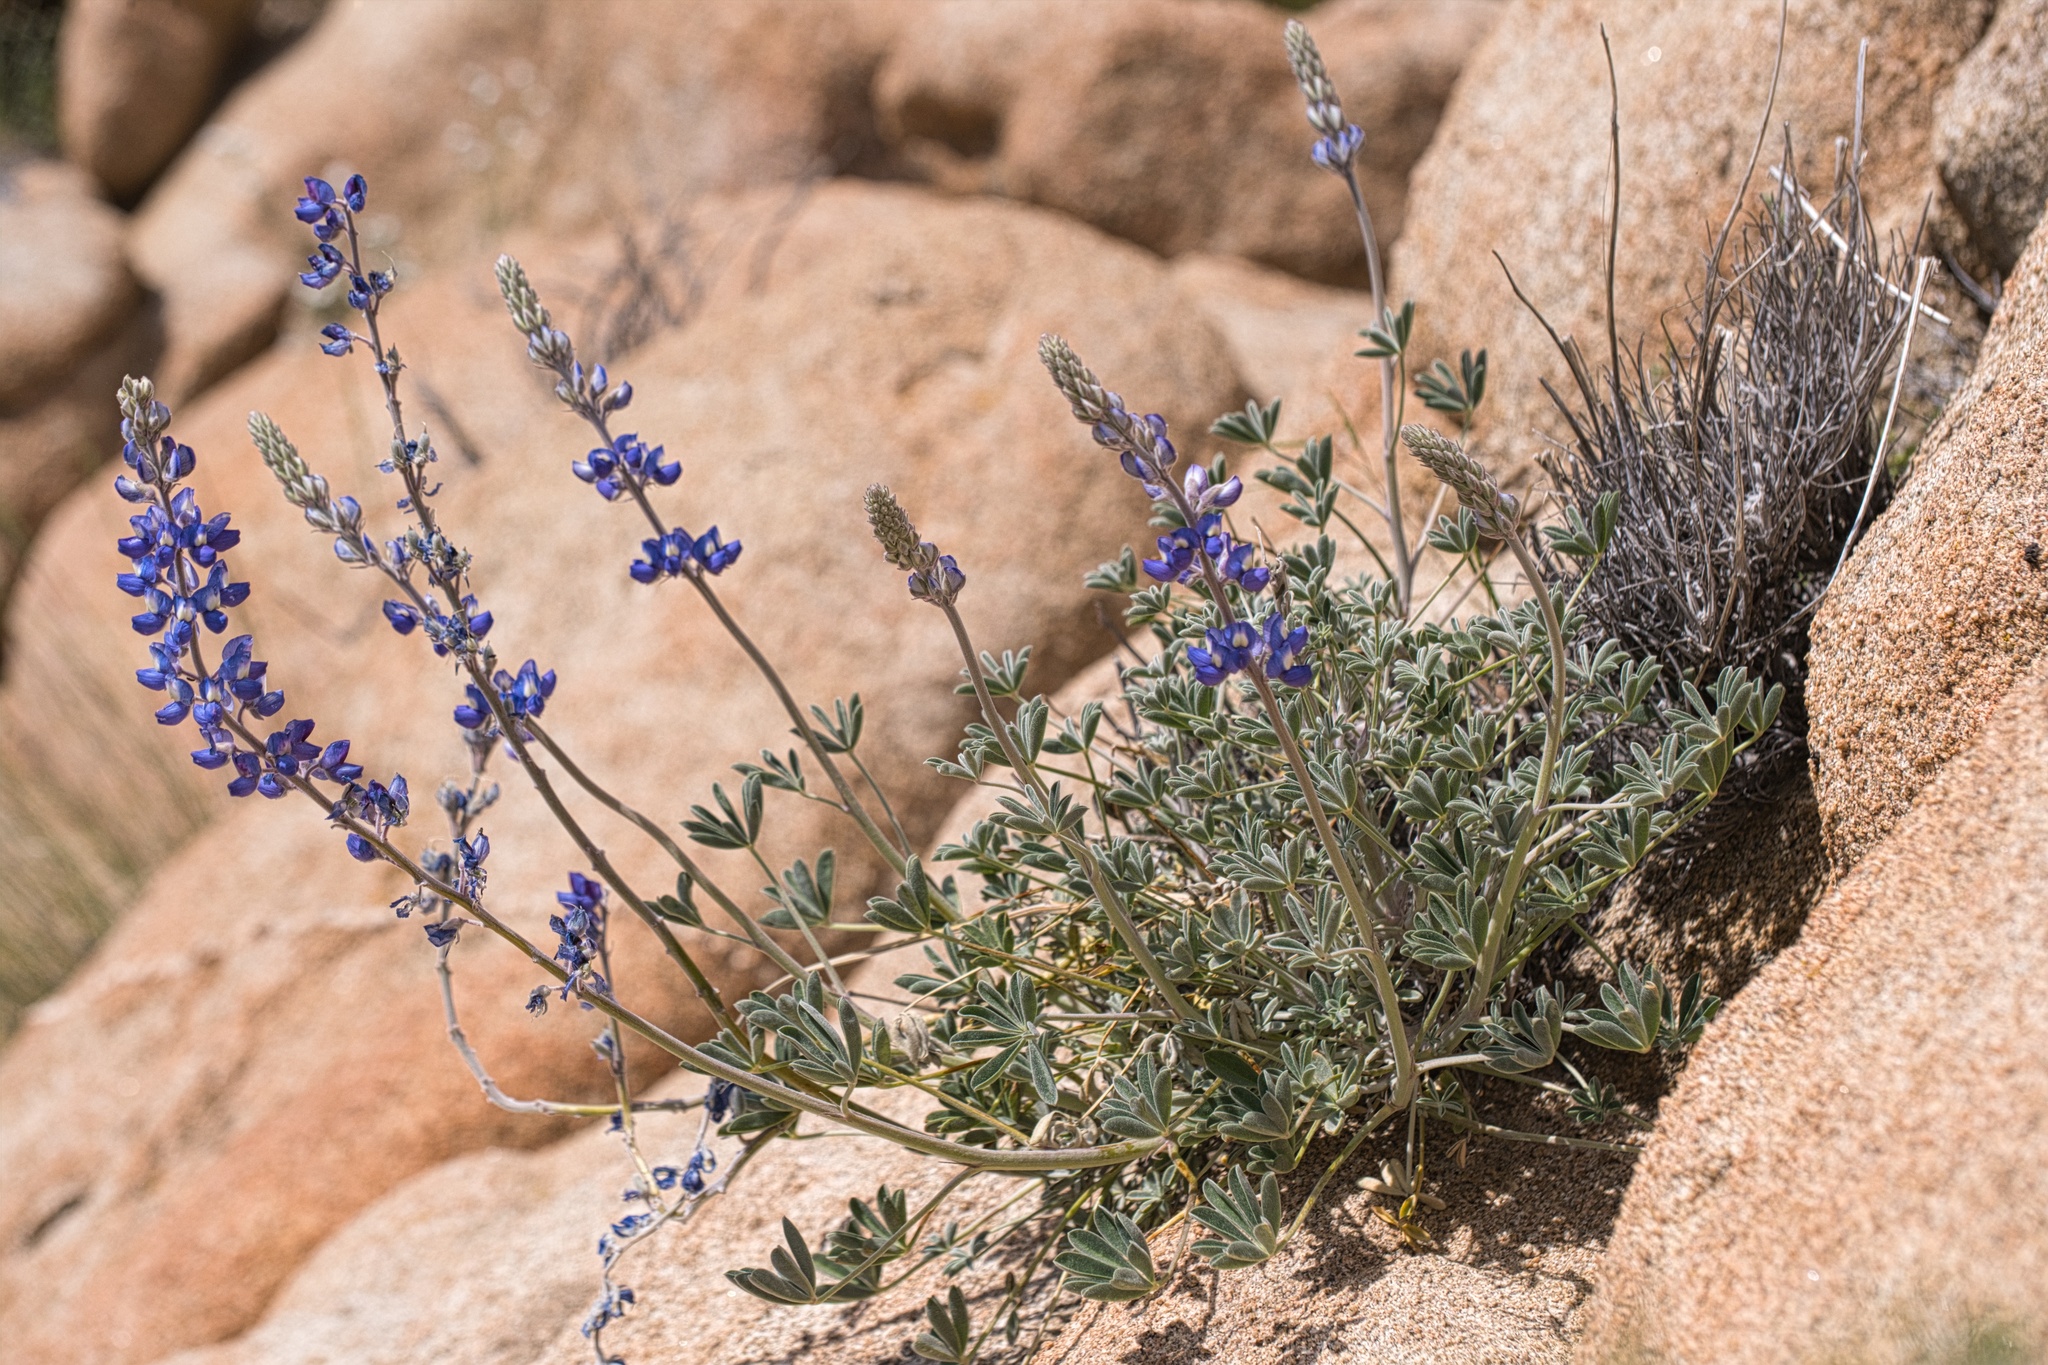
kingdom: Plantae
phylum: Tracheophyta
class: Magnoliopsida
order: Fabales
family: Fabaceae
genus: Lupinus
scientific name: Lupinus excubitus
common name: Grape soda lupine
